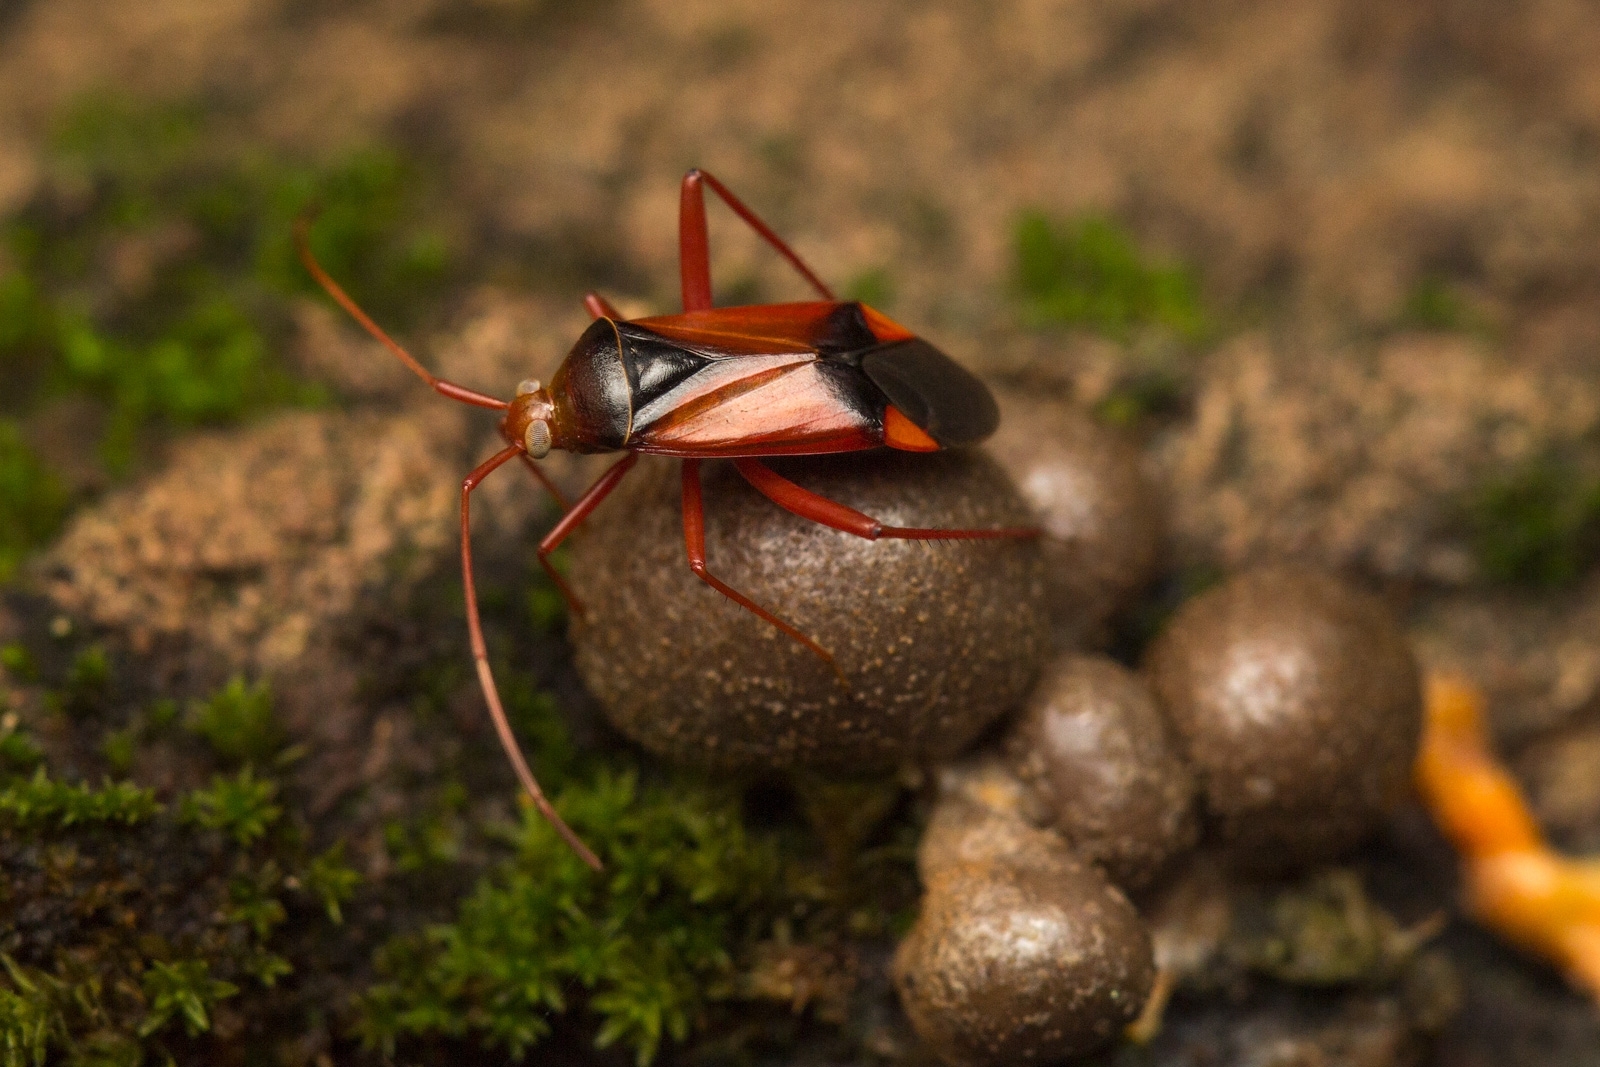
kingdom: Animalia
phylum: Arthropoda
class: Insecta
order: Hemiptera
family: Miridae
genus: Megacoelum
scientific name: Megacoelum infusum
